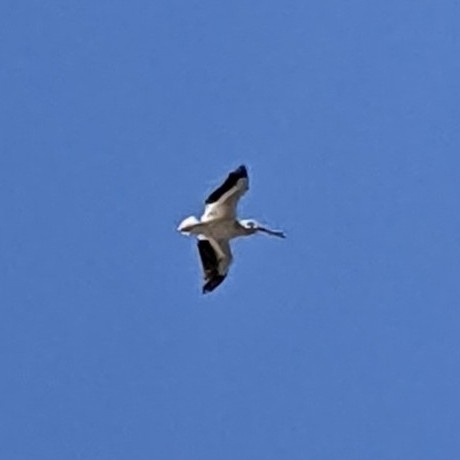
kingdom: Animalia
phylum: Chordata
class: Aves
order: Pelecaniformes
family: Pelecanidae
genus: Pelecanus
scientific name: Pelecanus erythrorhynchos
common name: American white pelican
